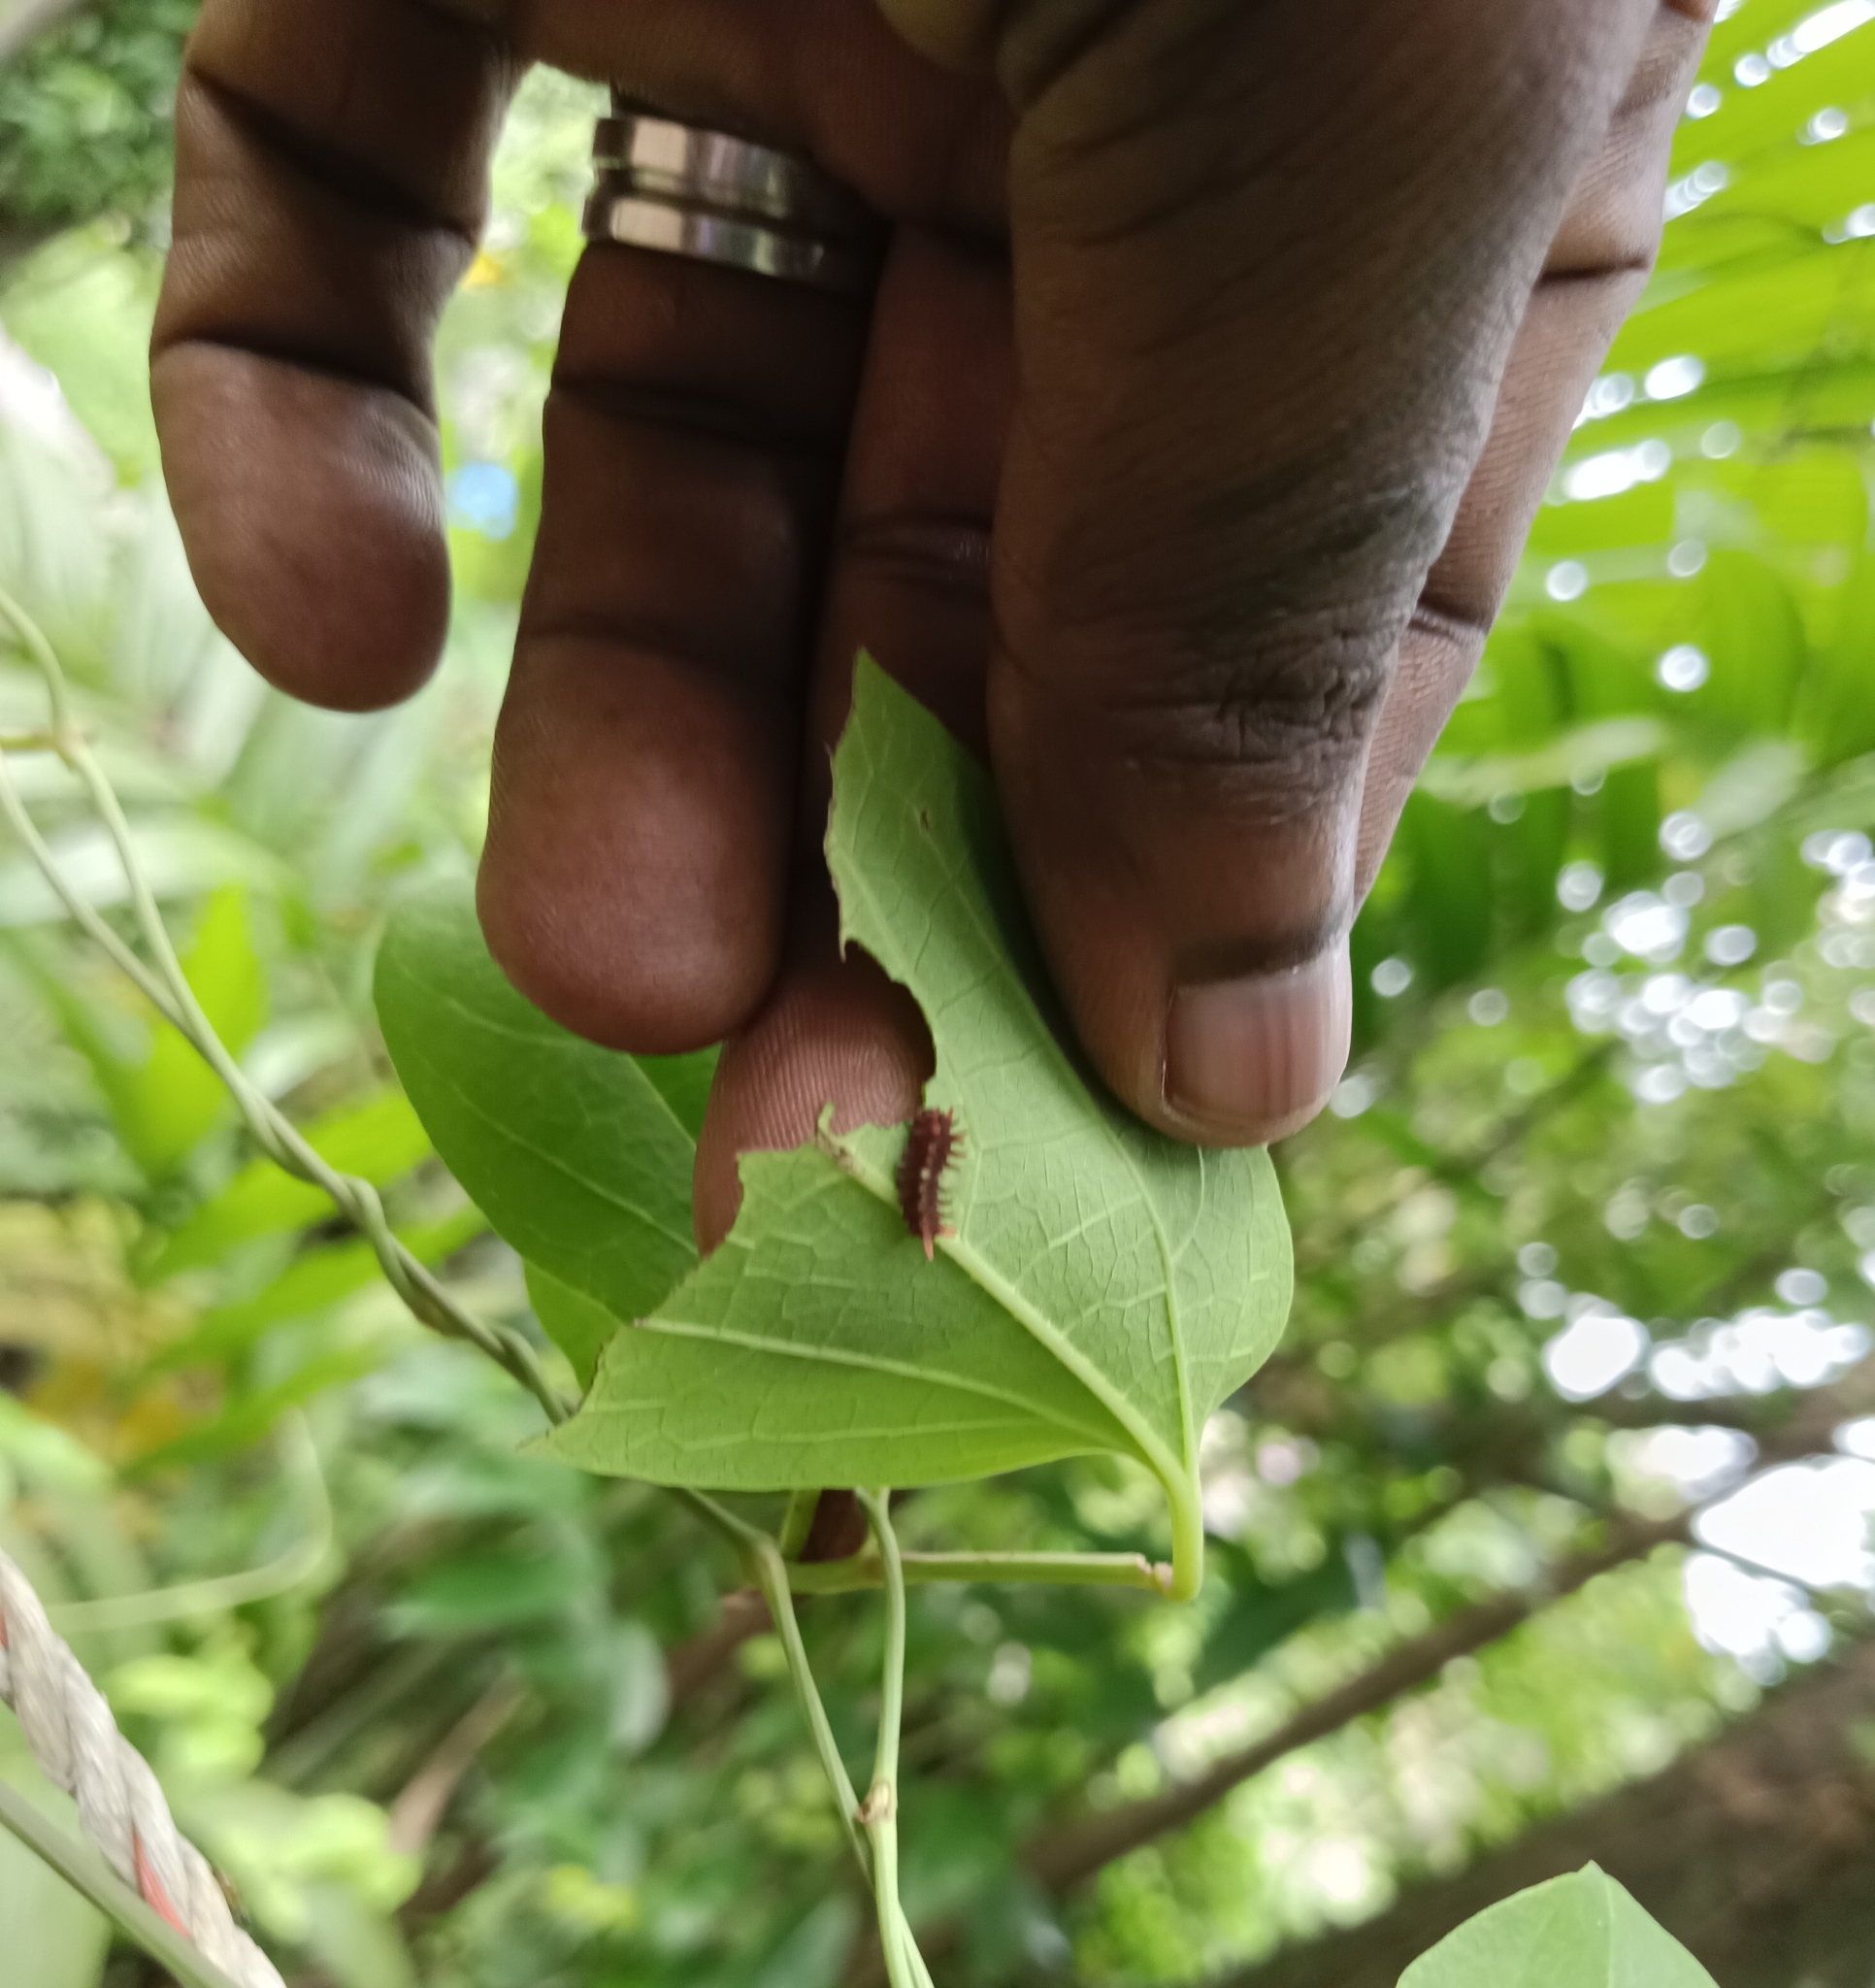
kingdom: Animalia
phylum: Arthropoda
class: Insecta
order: Lepidoptera
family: Papilionidae
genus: Pachliopta
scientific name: Pachliopta aristolochiae
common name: Common rose
